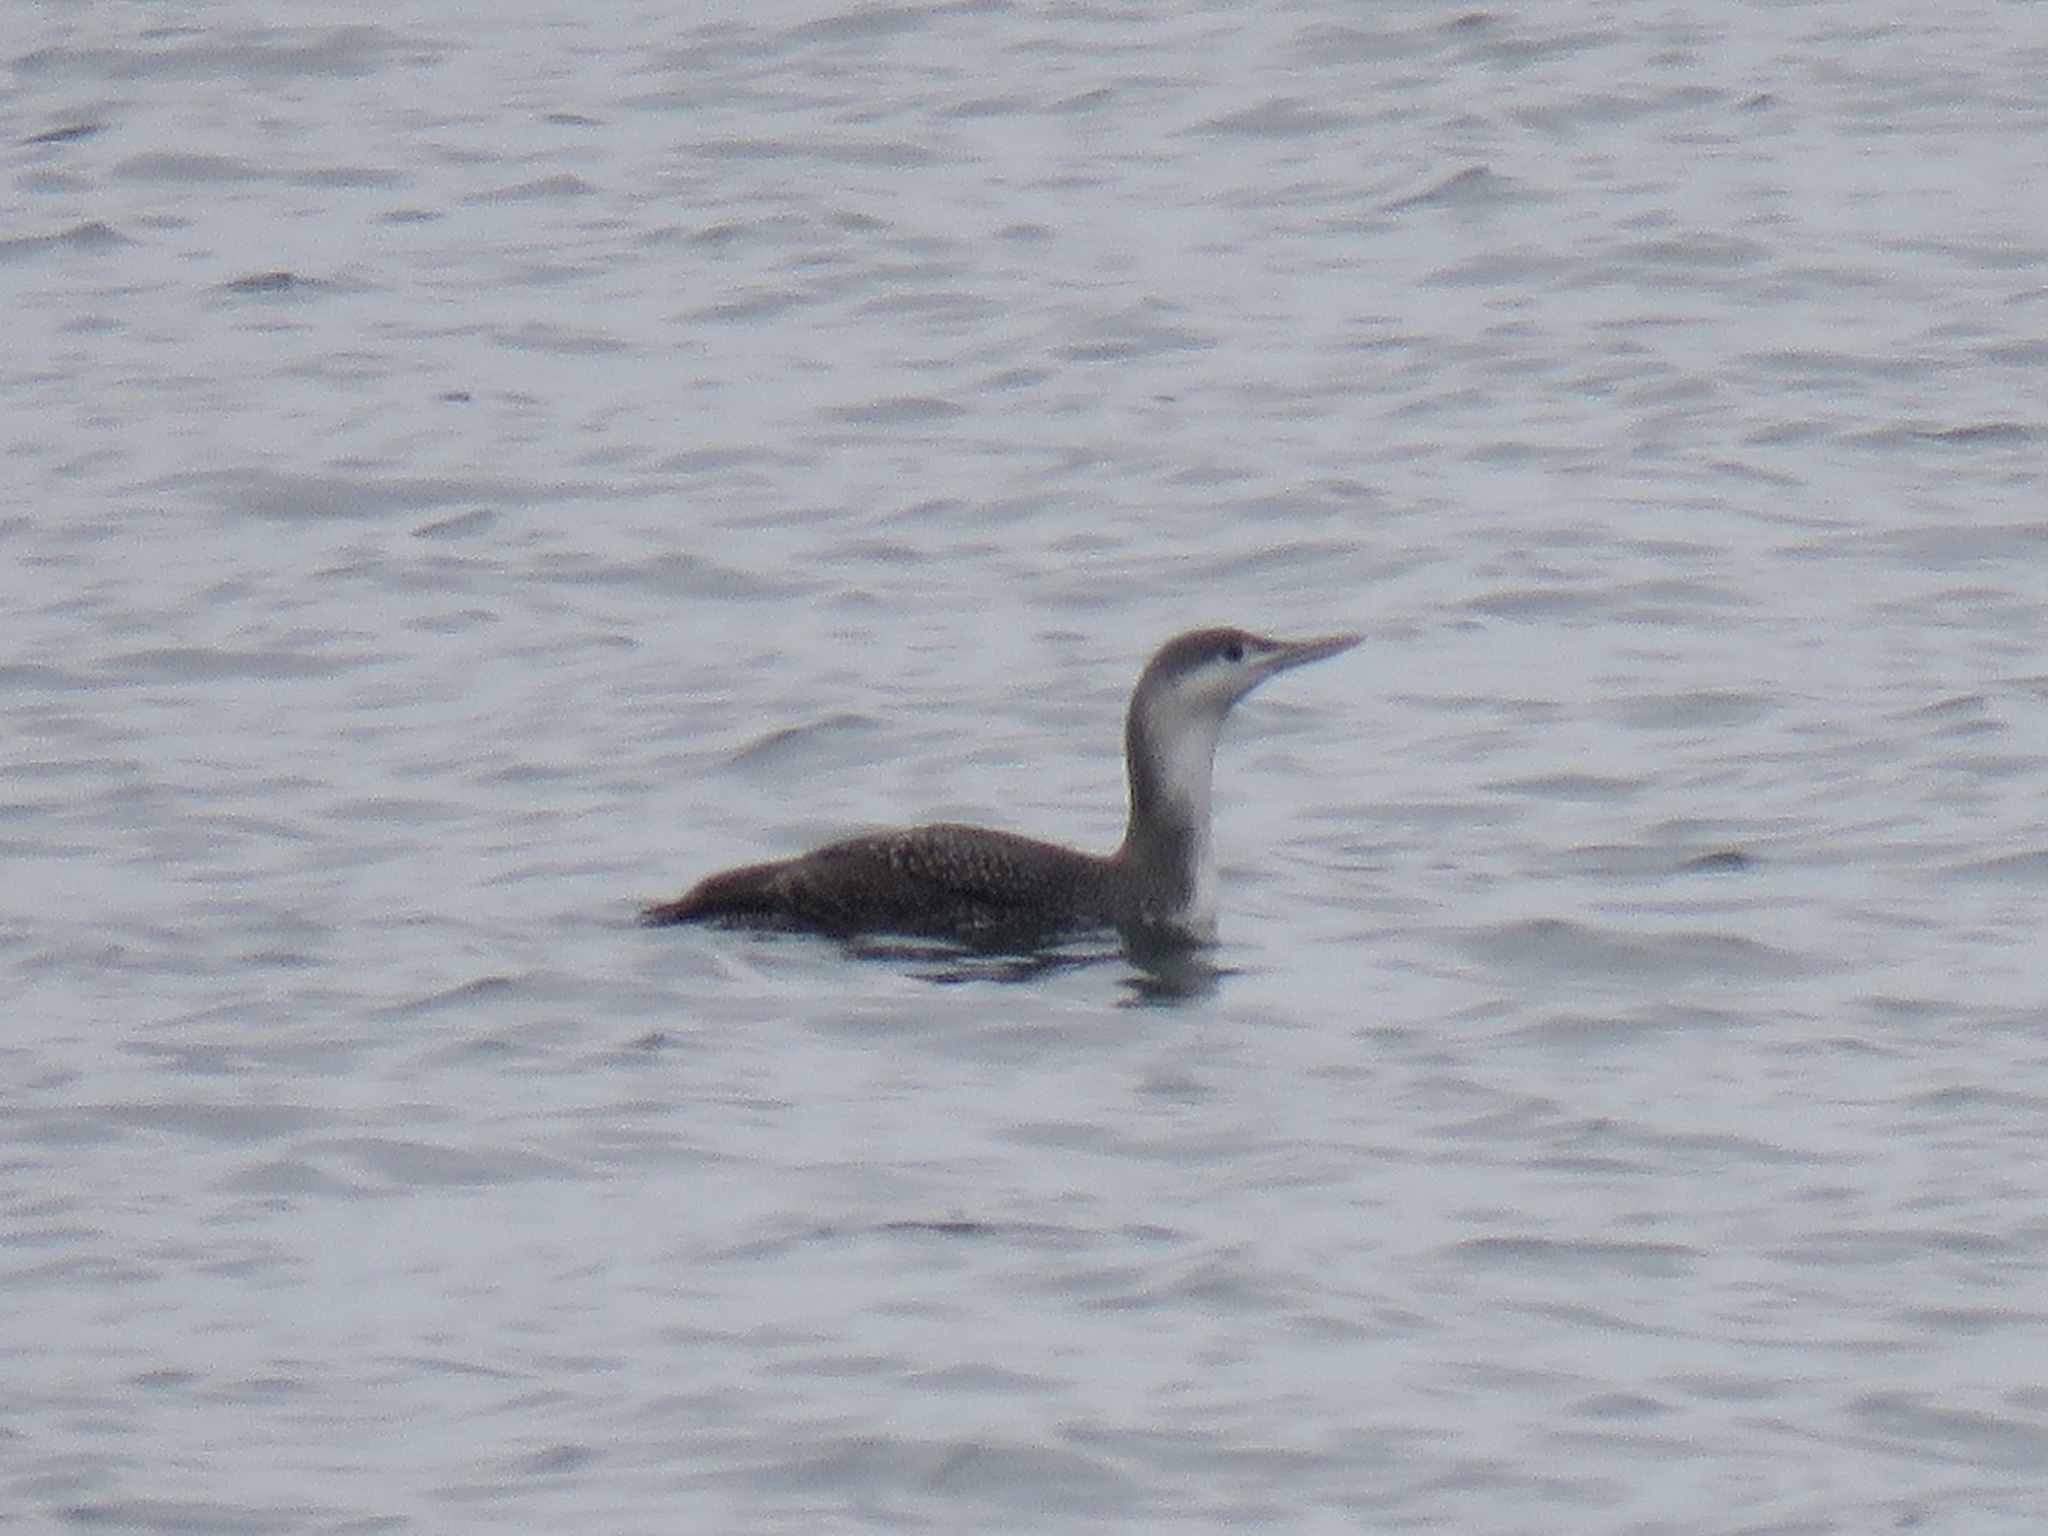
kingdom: Animalia
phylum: Chordata
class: Aves
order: Gaviiformes
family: Gaviidae
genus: Gavia
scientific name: Gavia stellata
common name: Red-throated loon
